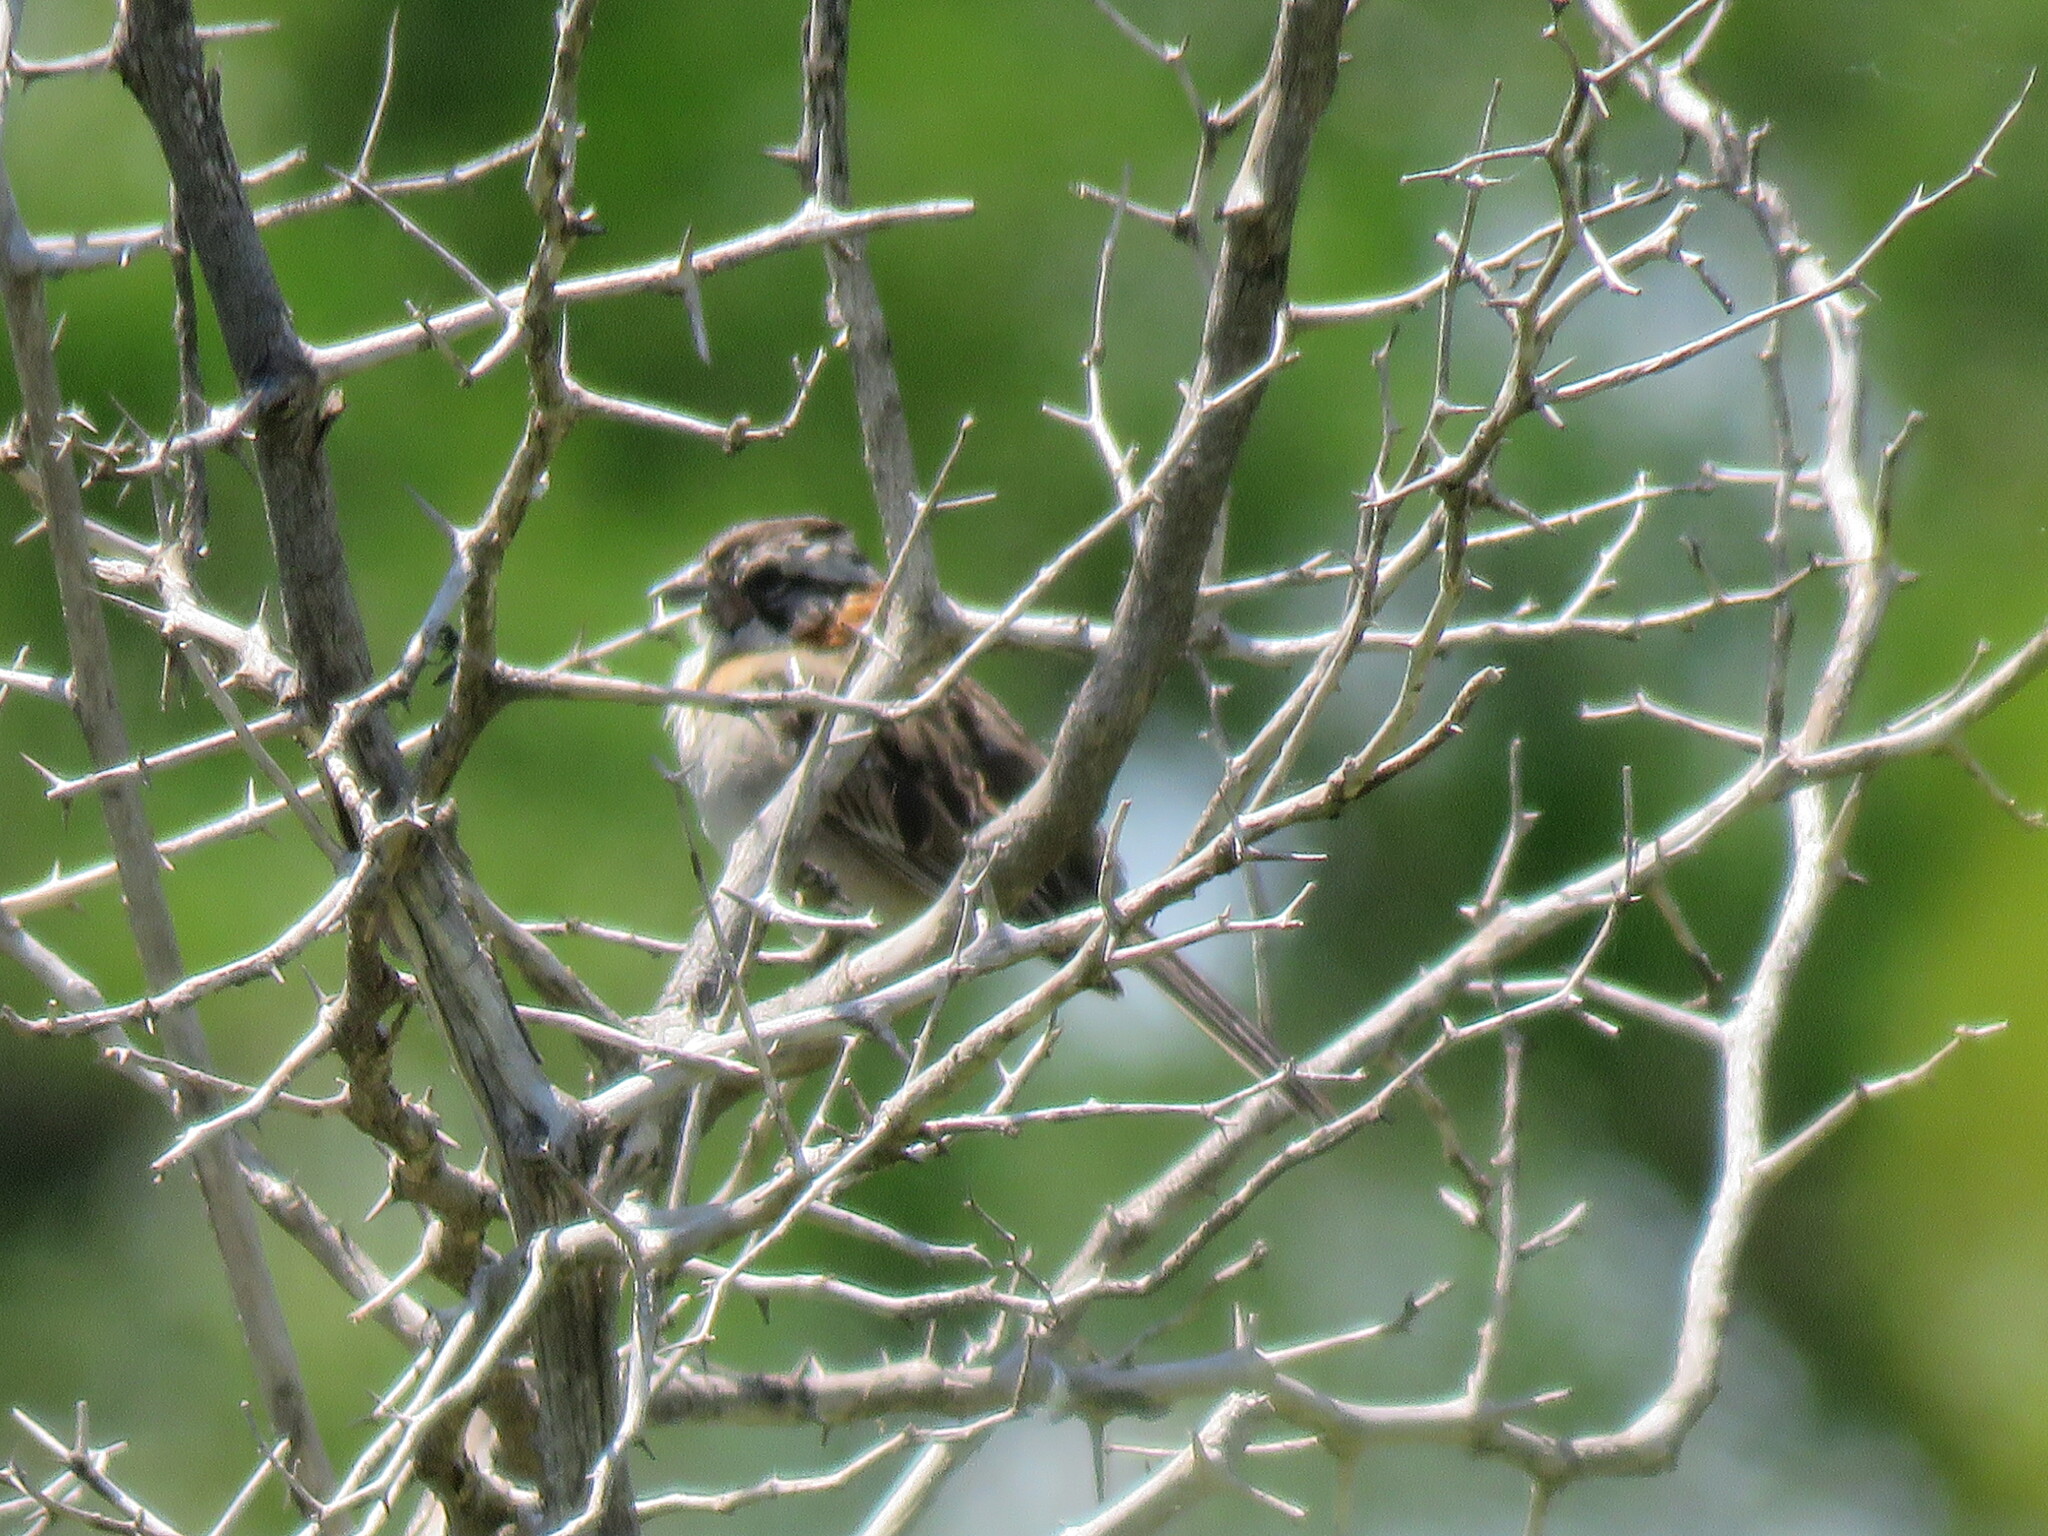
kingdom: Animalia
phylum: Chordata
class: Aves
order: Passeriformes
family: Passerellidae
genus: Zonotrichia
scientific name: Zonotrichia capensis
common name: Rufous-collared sparrow
